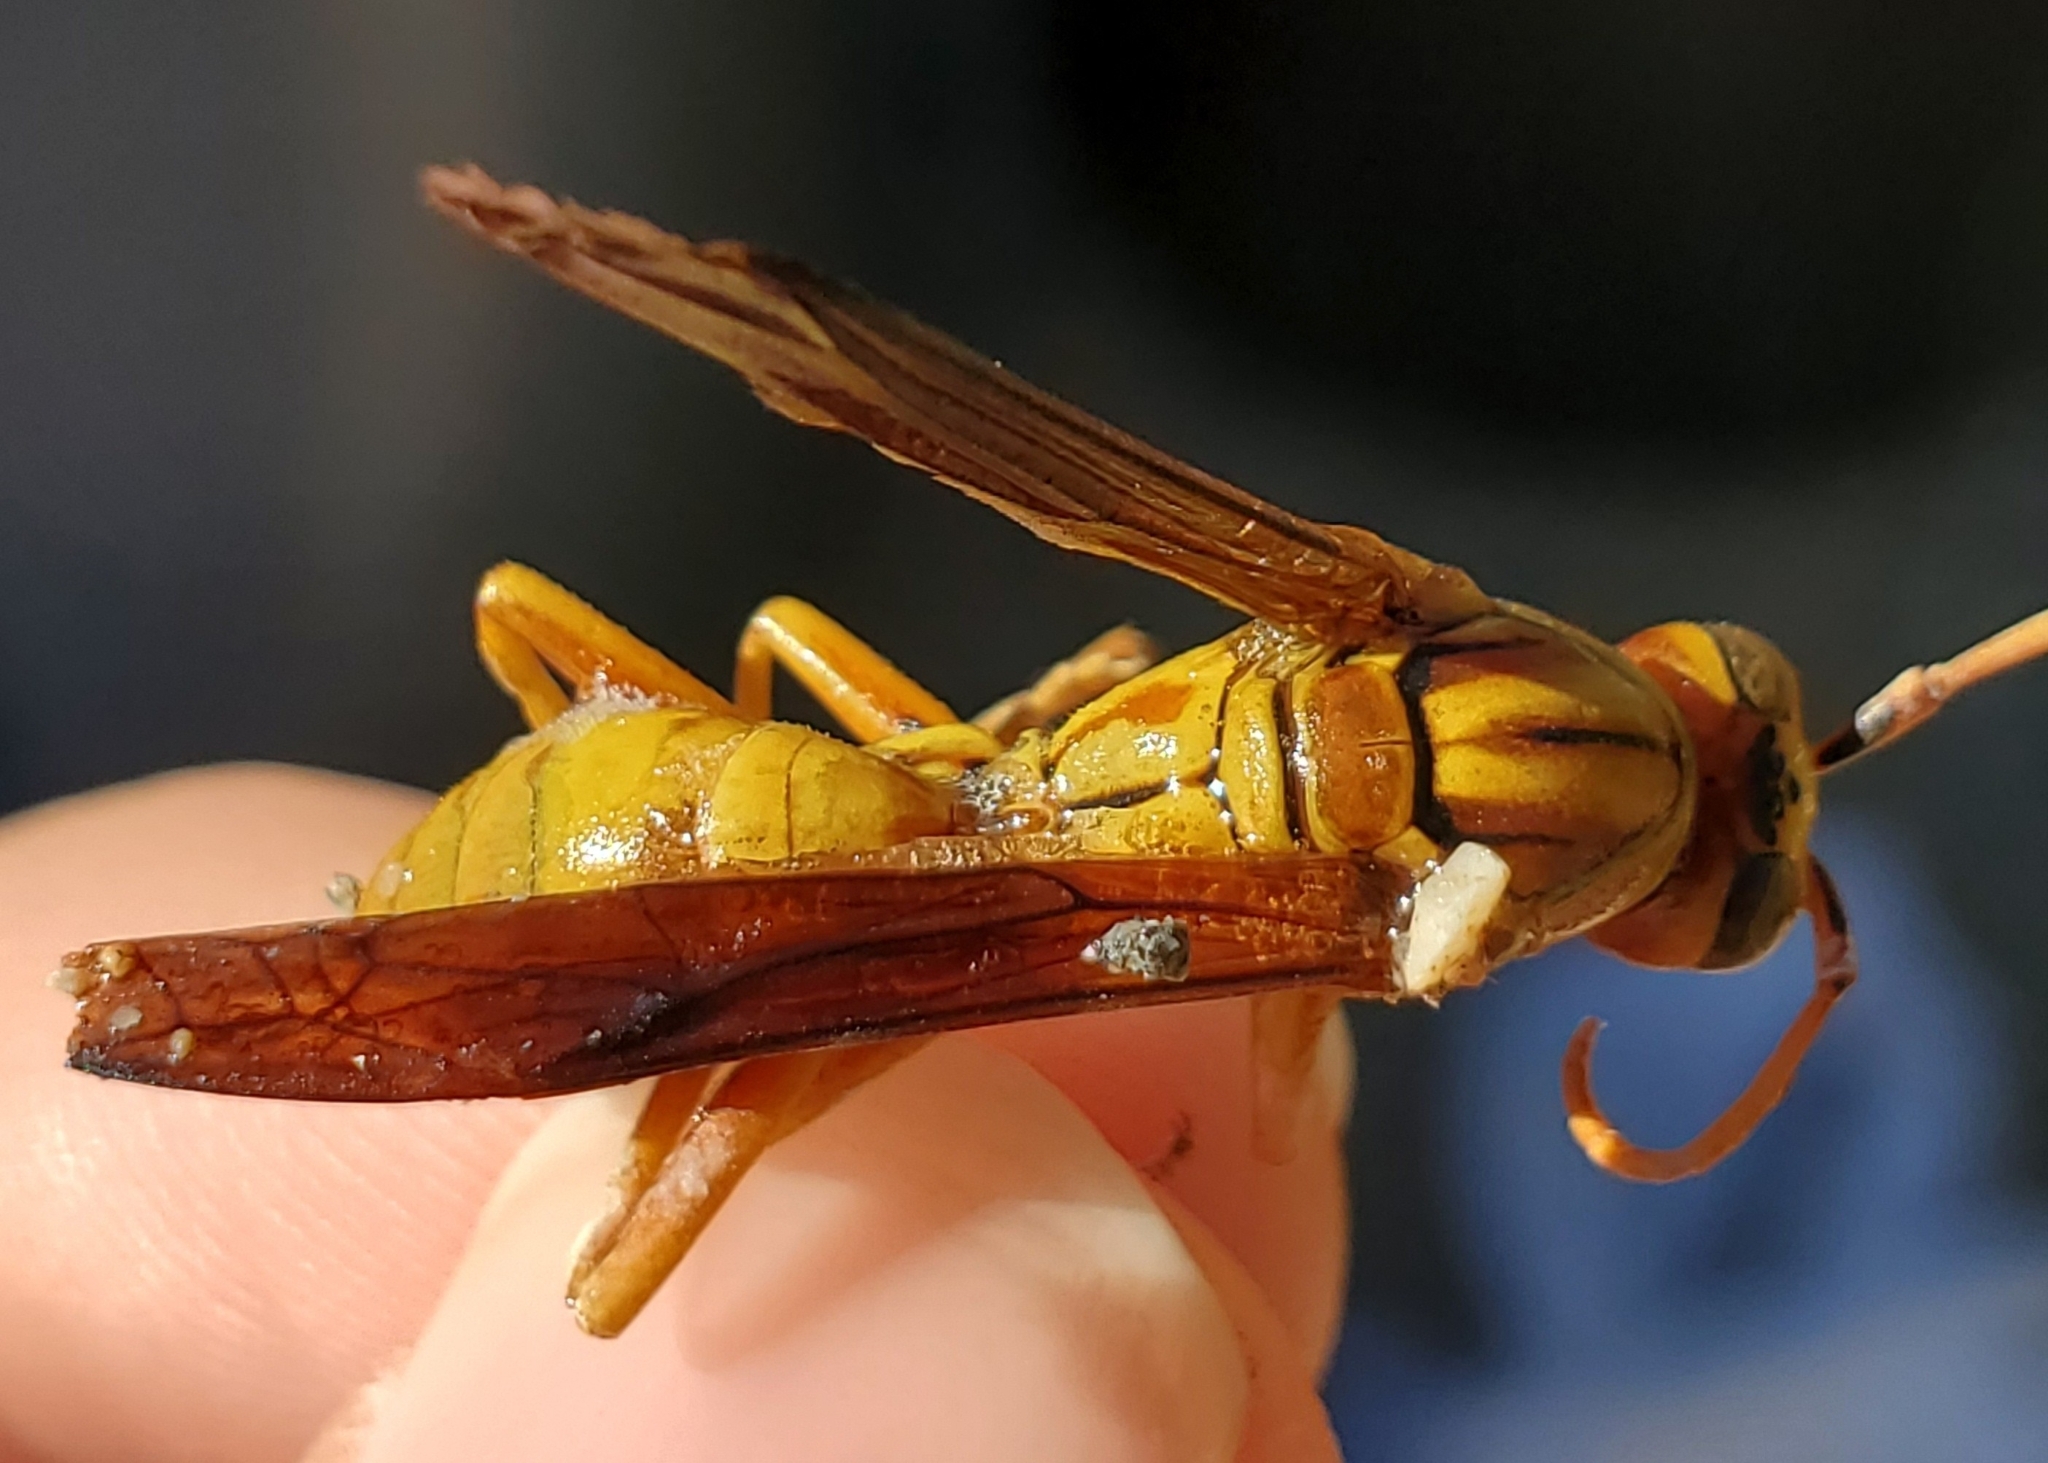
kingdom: Animalia
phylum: Arthropoda
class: Insecta
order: Hymenoptera
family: Eumenidae
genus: Polistes
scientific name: Polistes flavus
